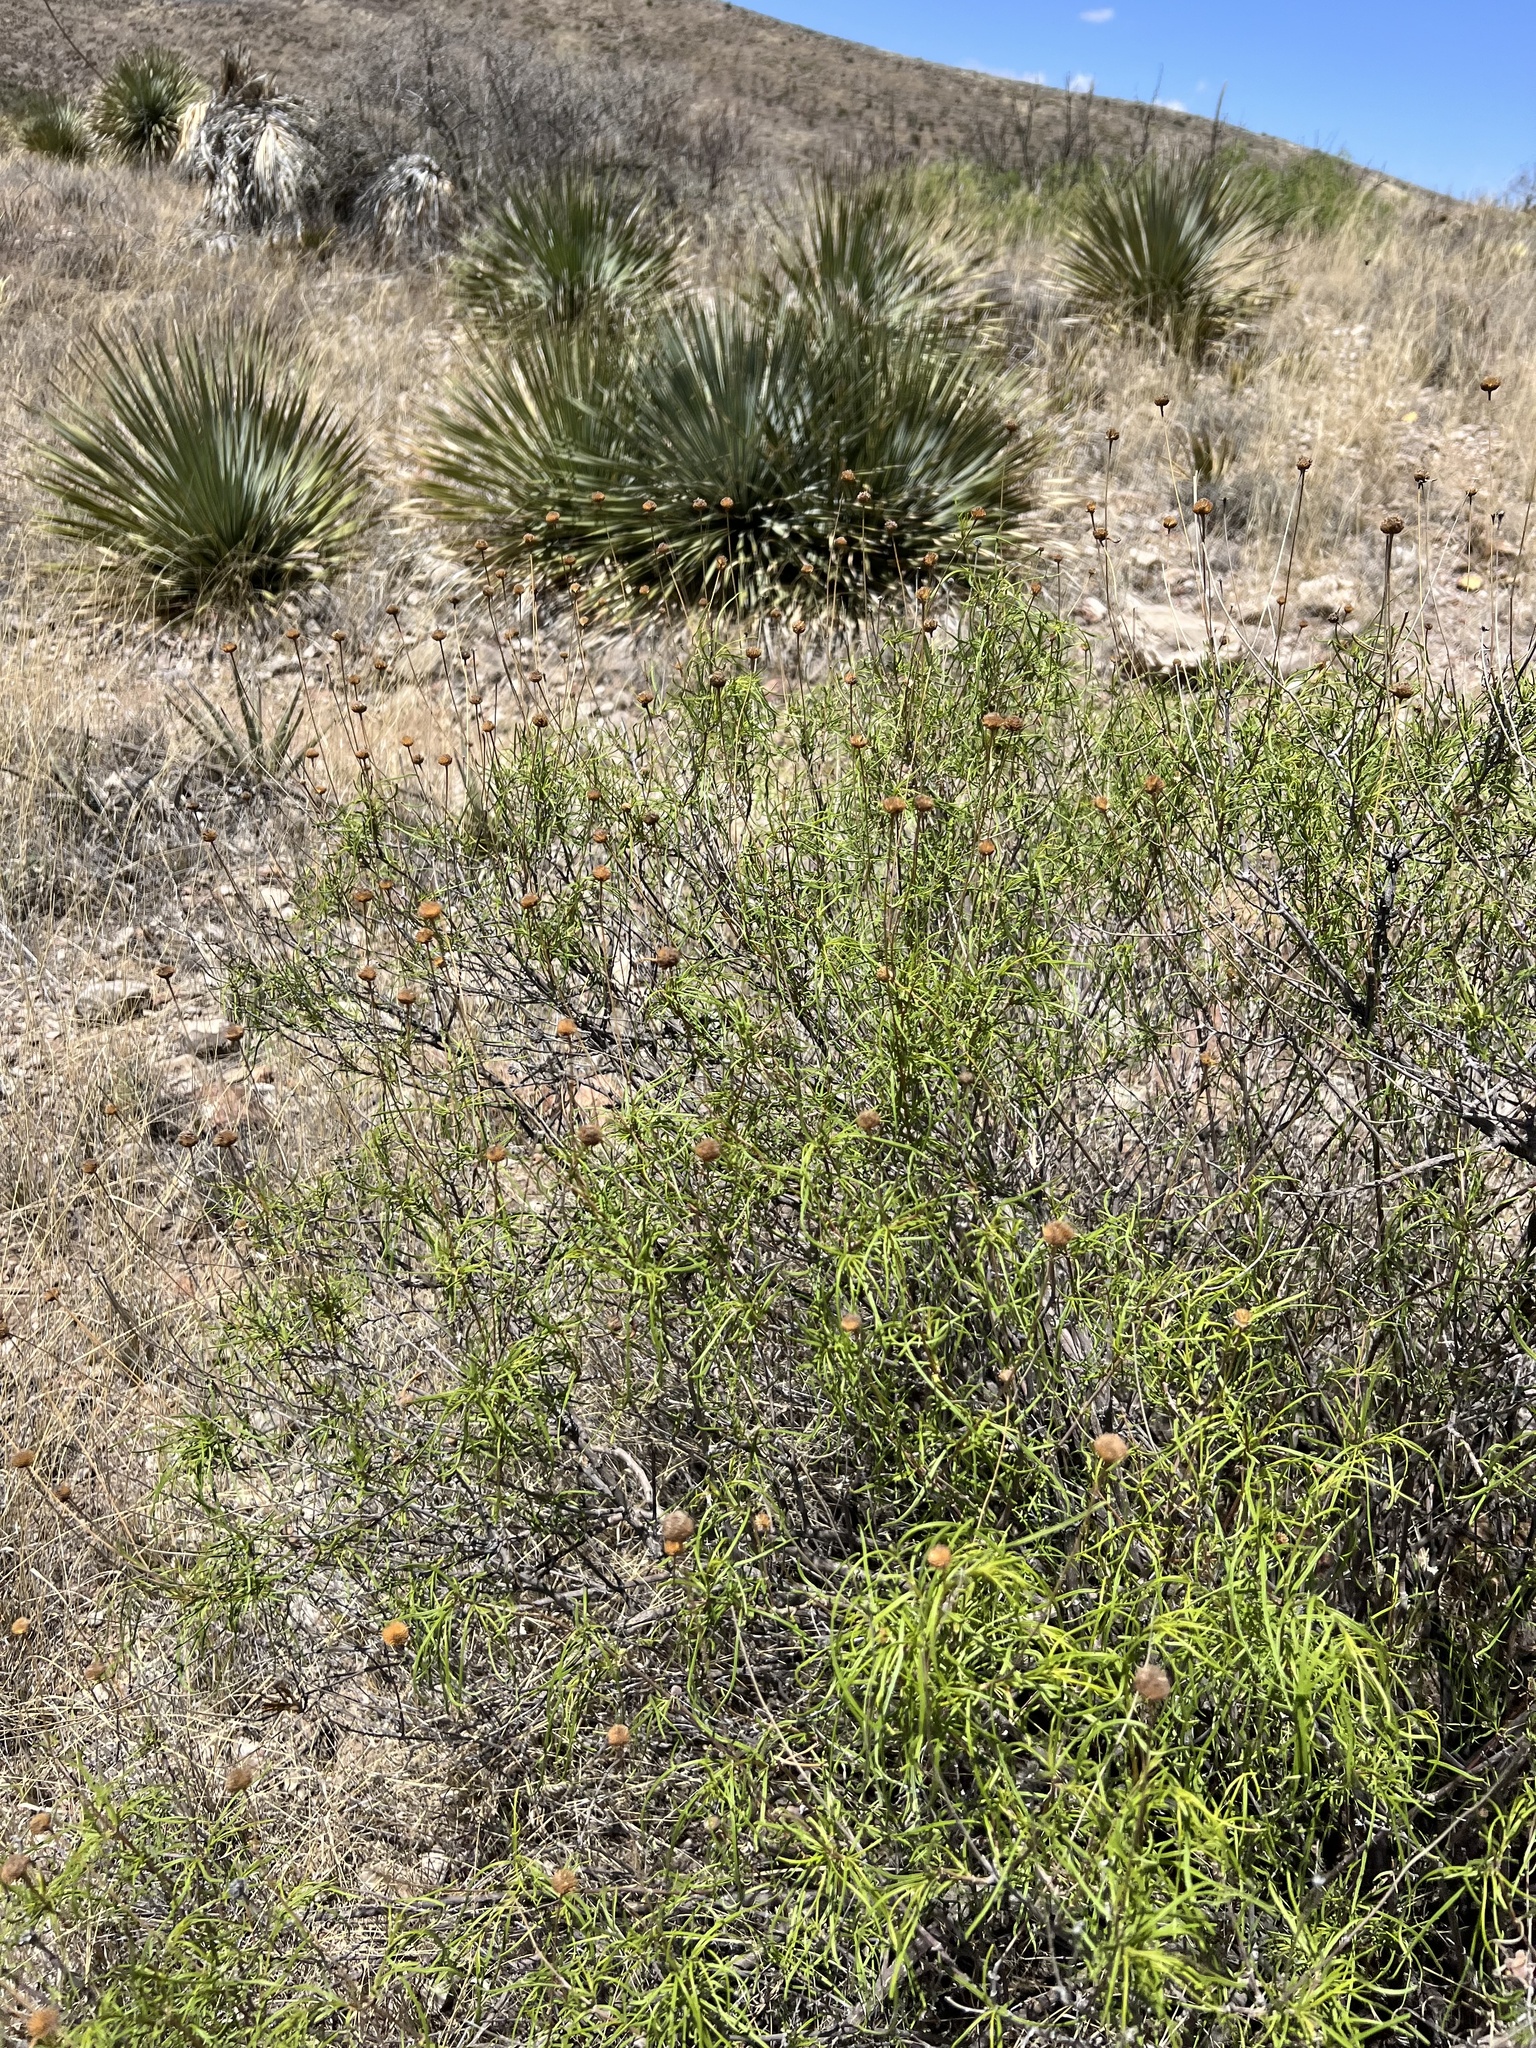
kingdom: Plantae
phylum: Tracheophyta
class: Magnoliopsida
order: Asterales
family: Asteraceae
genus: Sidneya
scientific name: Sidneya tenuifolia
